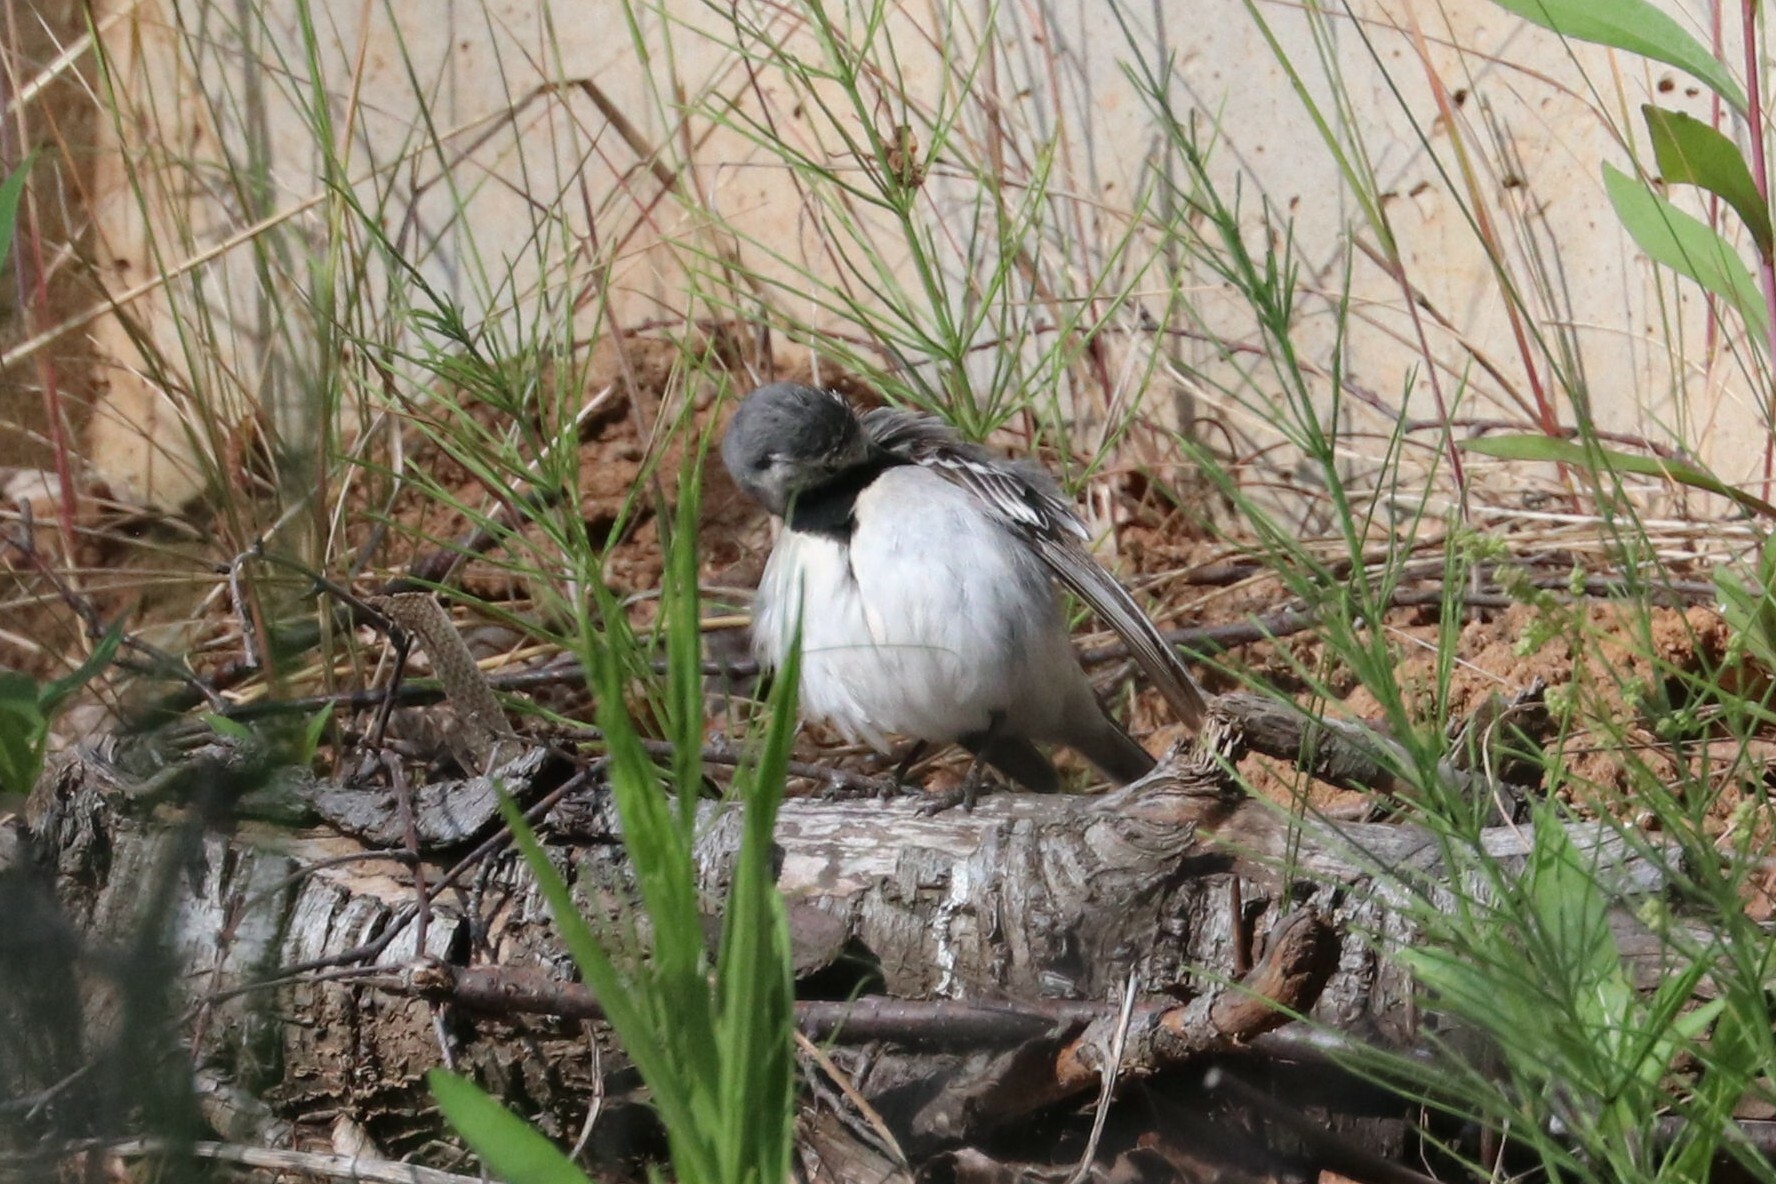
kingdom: Animalia
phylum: Chordata
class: Aves
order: Passeriformes
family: Motacillidae
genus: Motacilla
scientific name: Motacilla alba
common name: White wagtail
